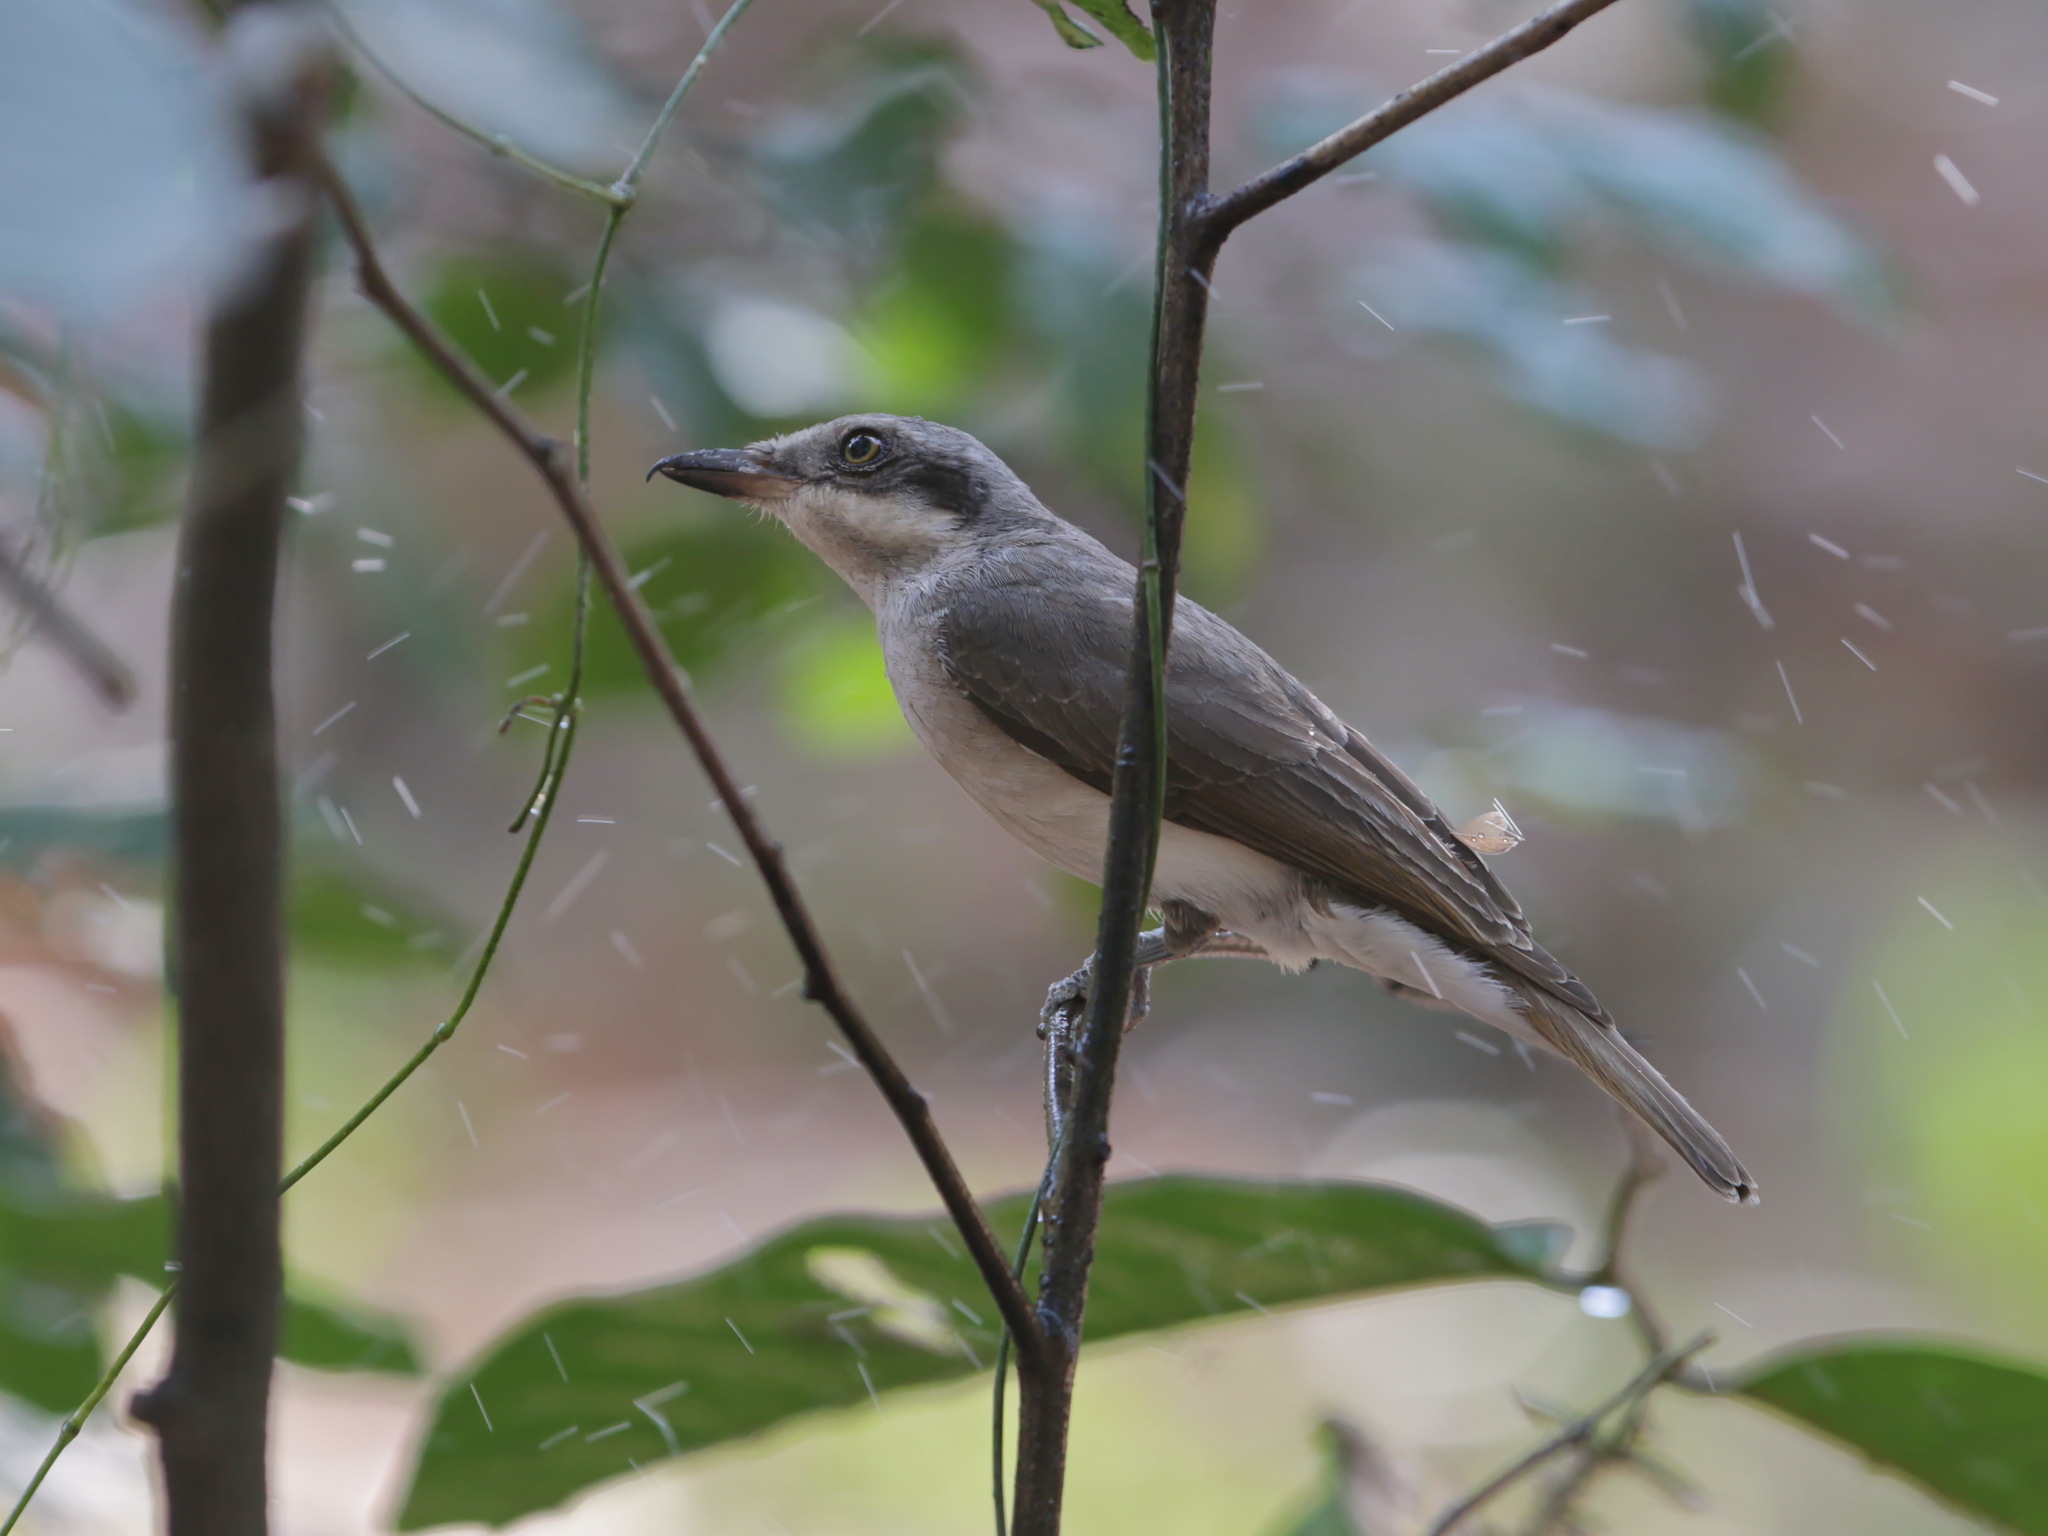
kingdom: Animalia
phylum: Chordata
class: Aves
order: Passeriformes
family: Tephrodornithidae
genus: Tephrodornis
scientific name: Tephrodornis virgatus
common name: Large woodshrike
